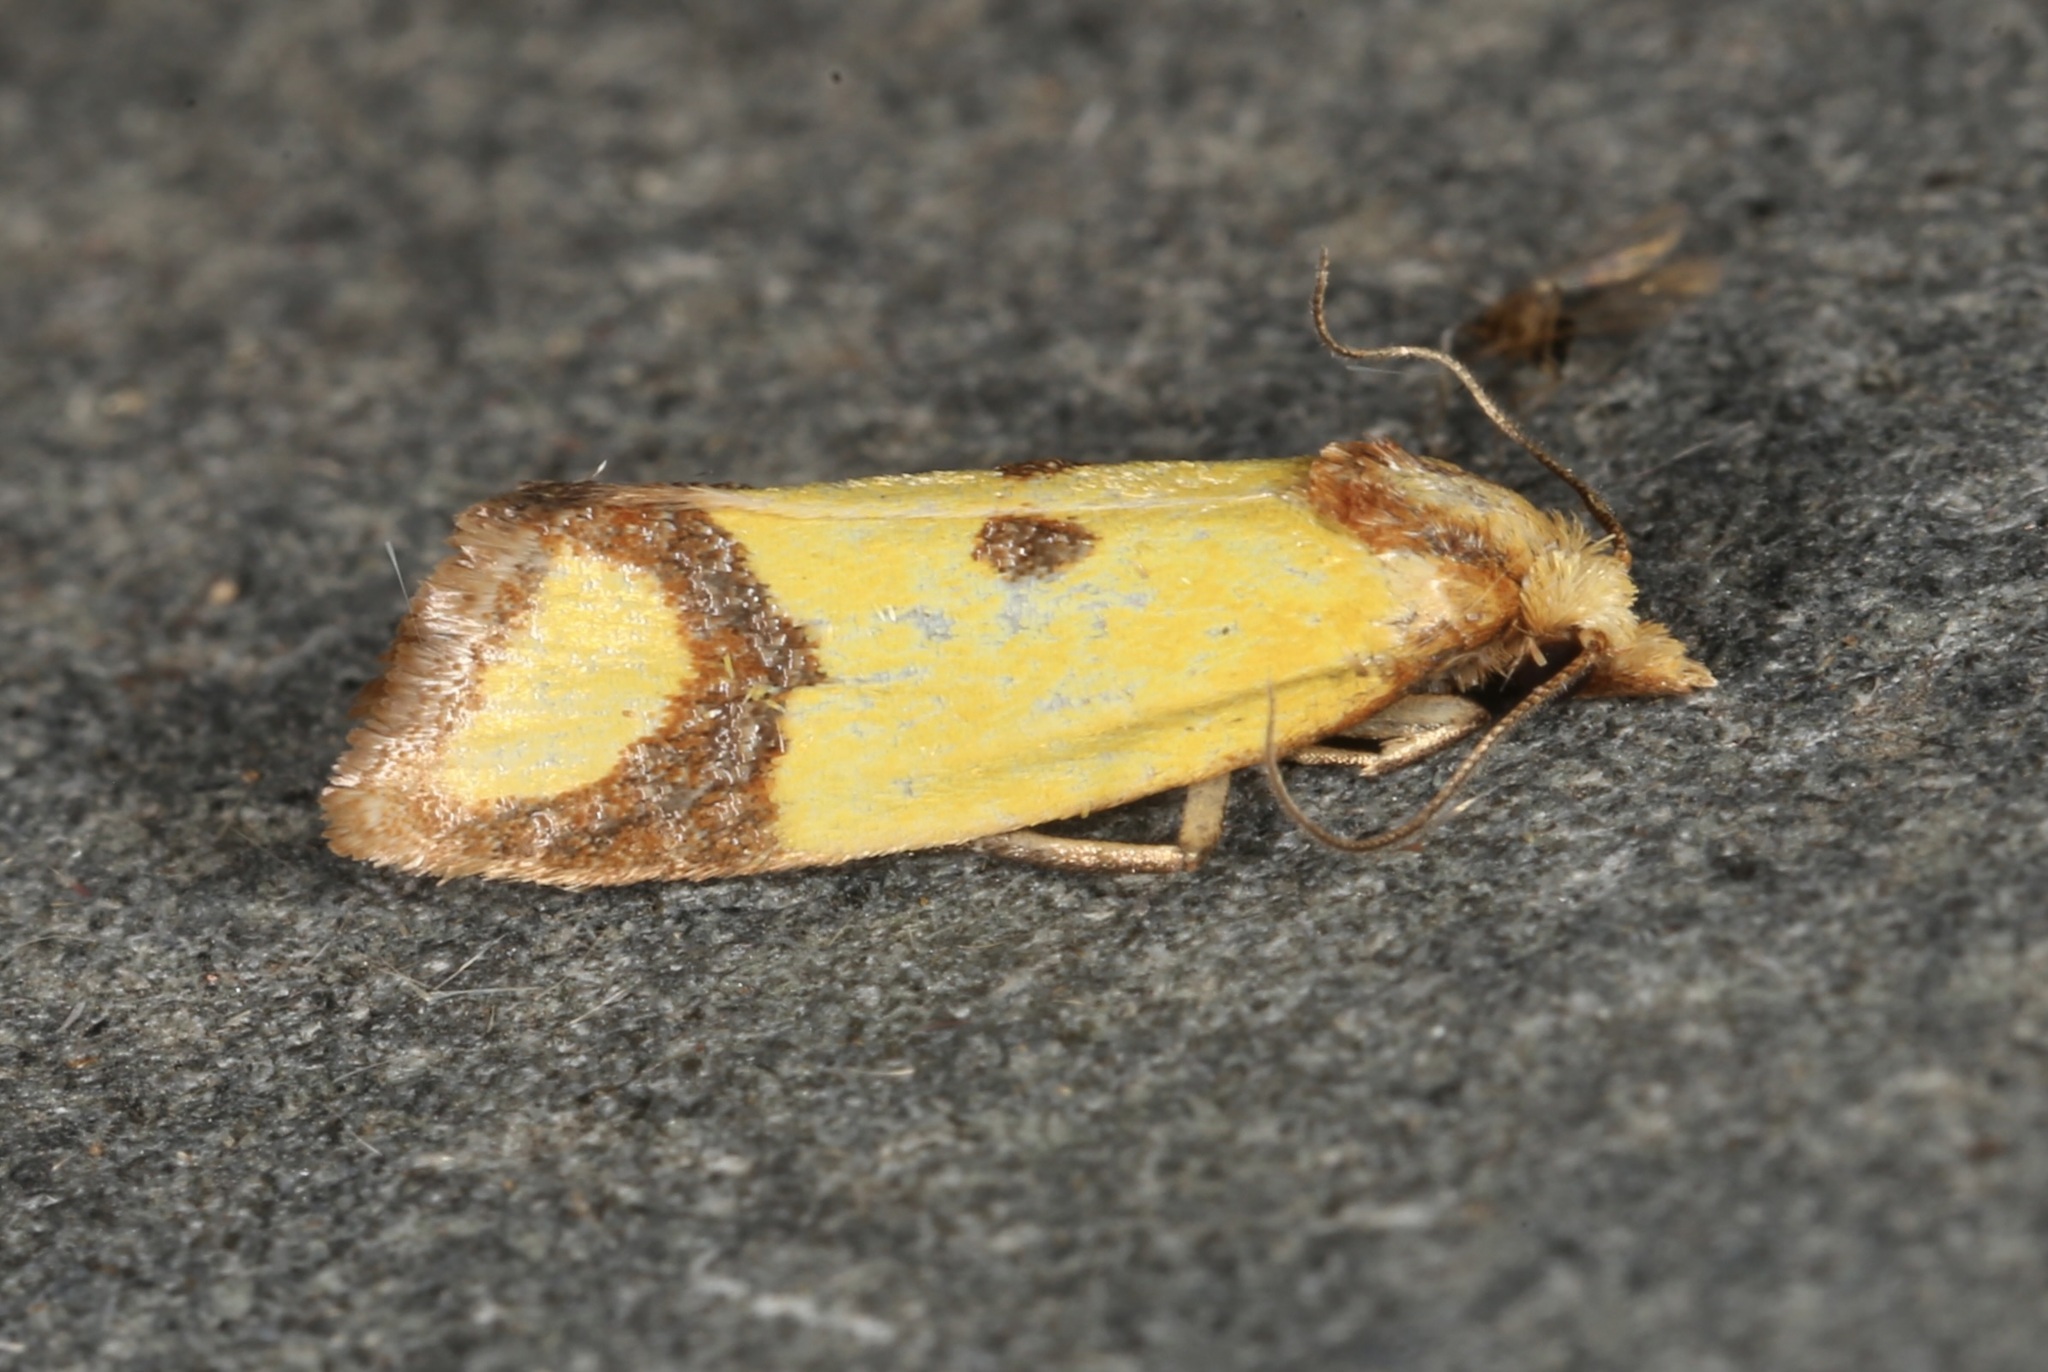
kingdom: Animalia
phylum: Arthropoda
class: Insecta
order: Lepidoptera
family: Tortricidae
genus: Agapeta
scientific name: Agapeta zoegana
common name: Sulfur knapweed root moth
